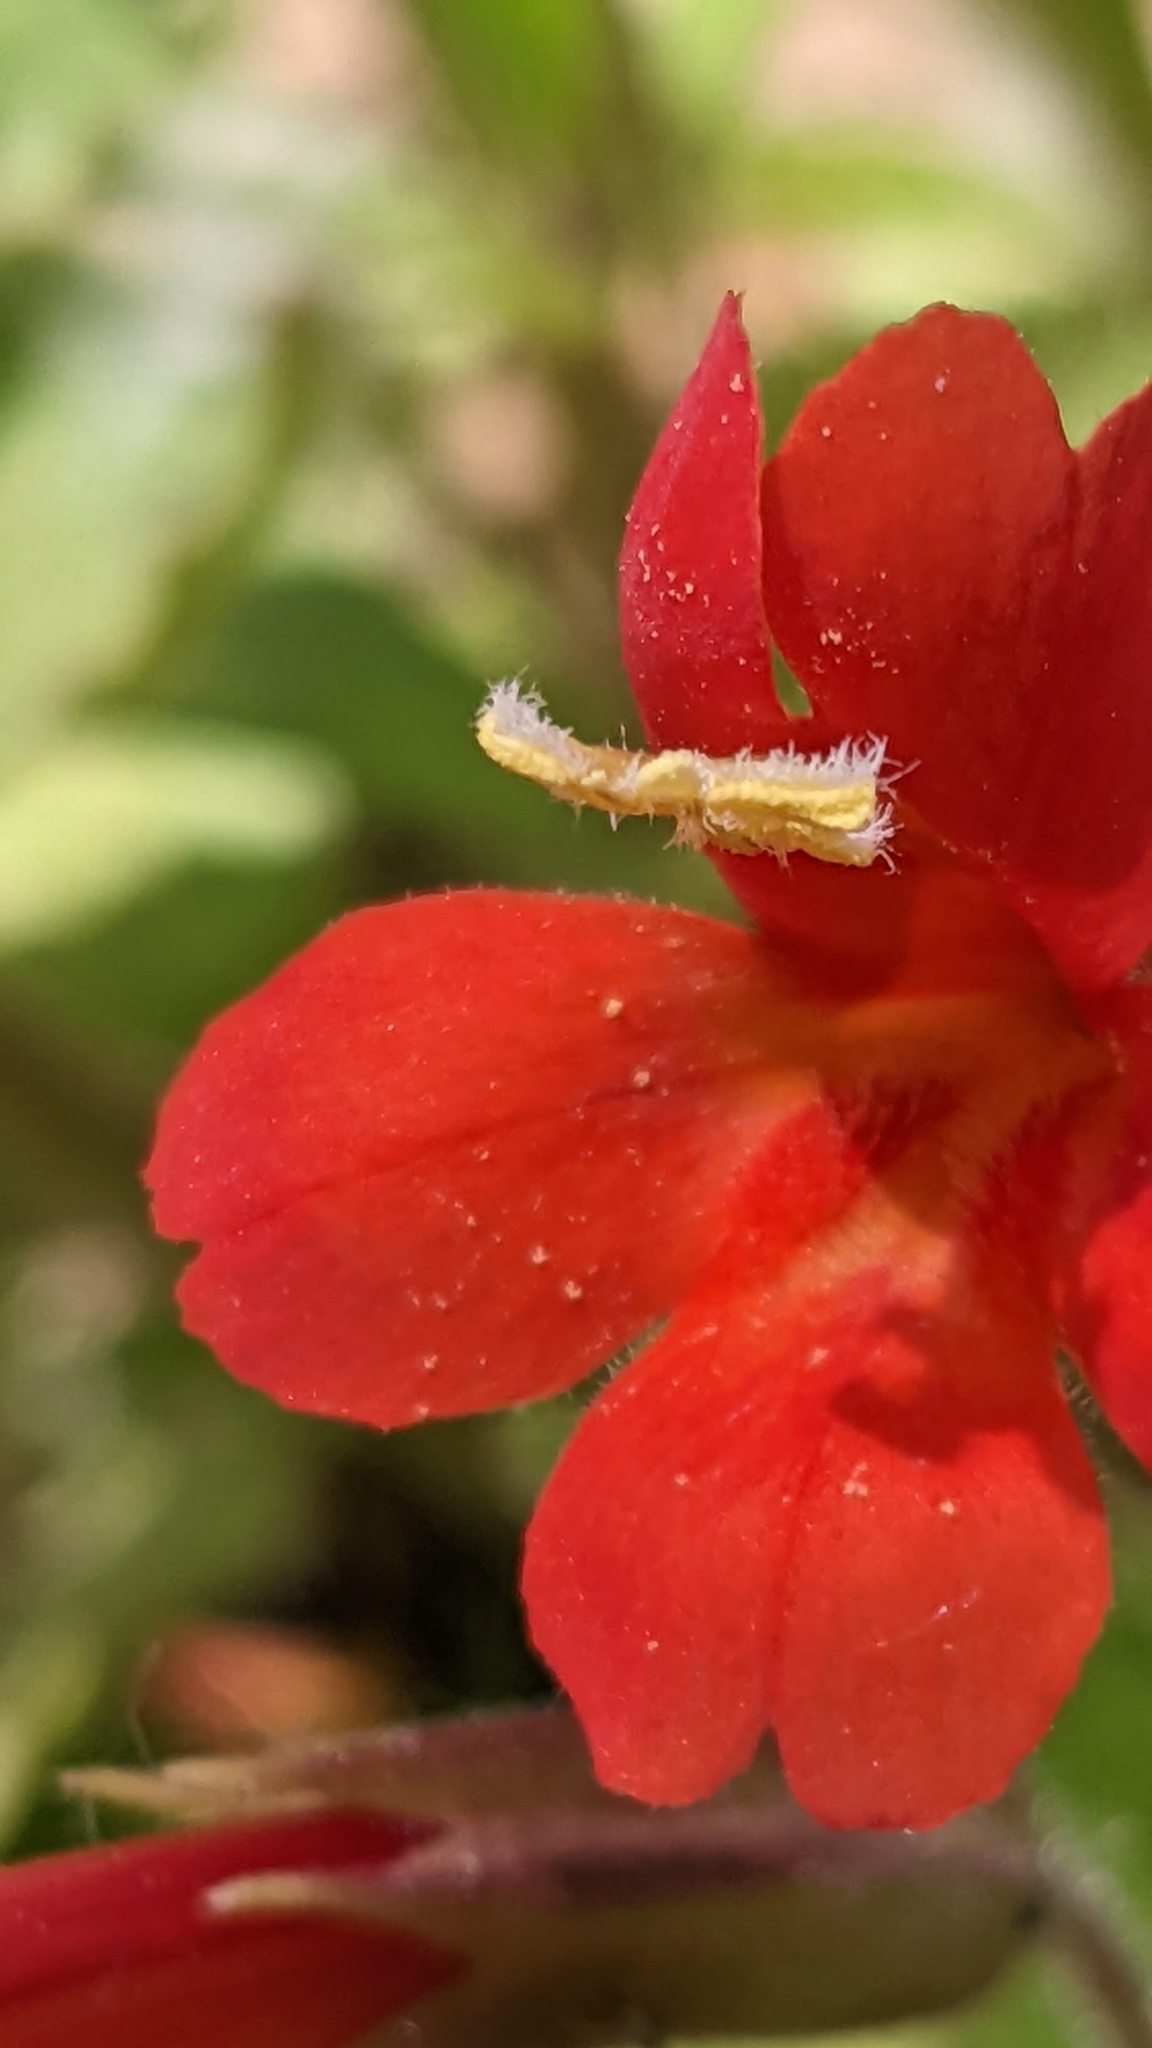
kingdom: Plantae
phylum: Tracheophyta
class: Magnoliopsida
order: Lamiales
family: Phrymaceae
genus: Erythranthe
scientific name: Erythranthe verbenacea
